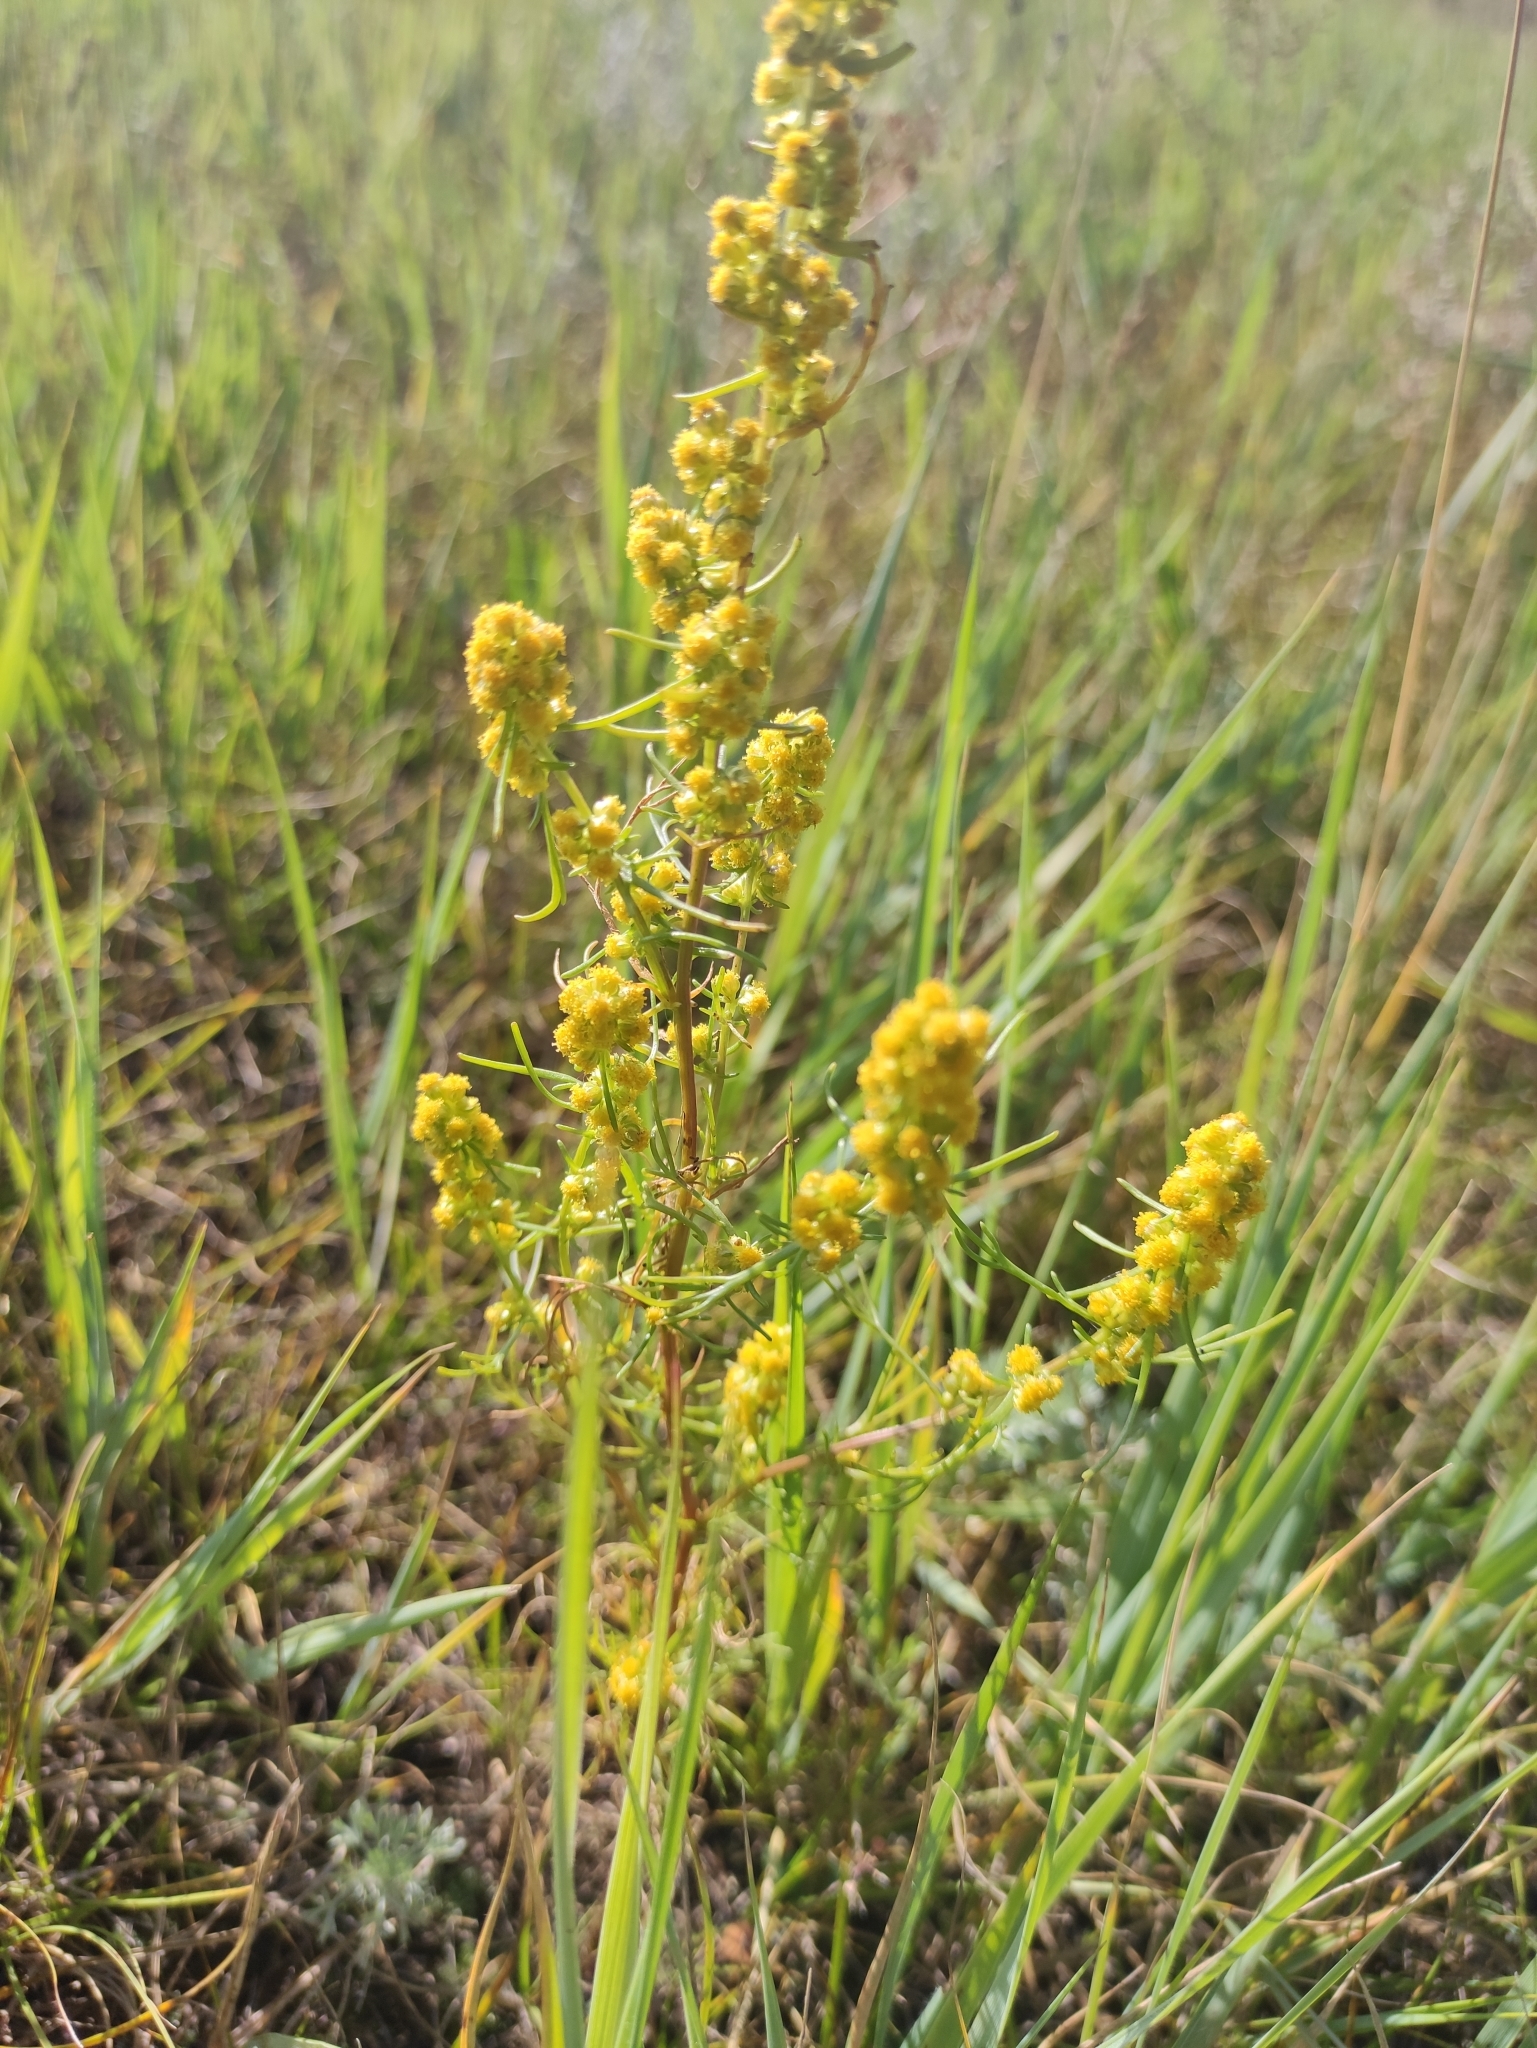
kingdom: Plantae
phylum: Tracheophyta
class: Magnoliopsida
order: Asterales
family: Asteraceae
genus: Artemisia
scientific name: Artemisia palustris
